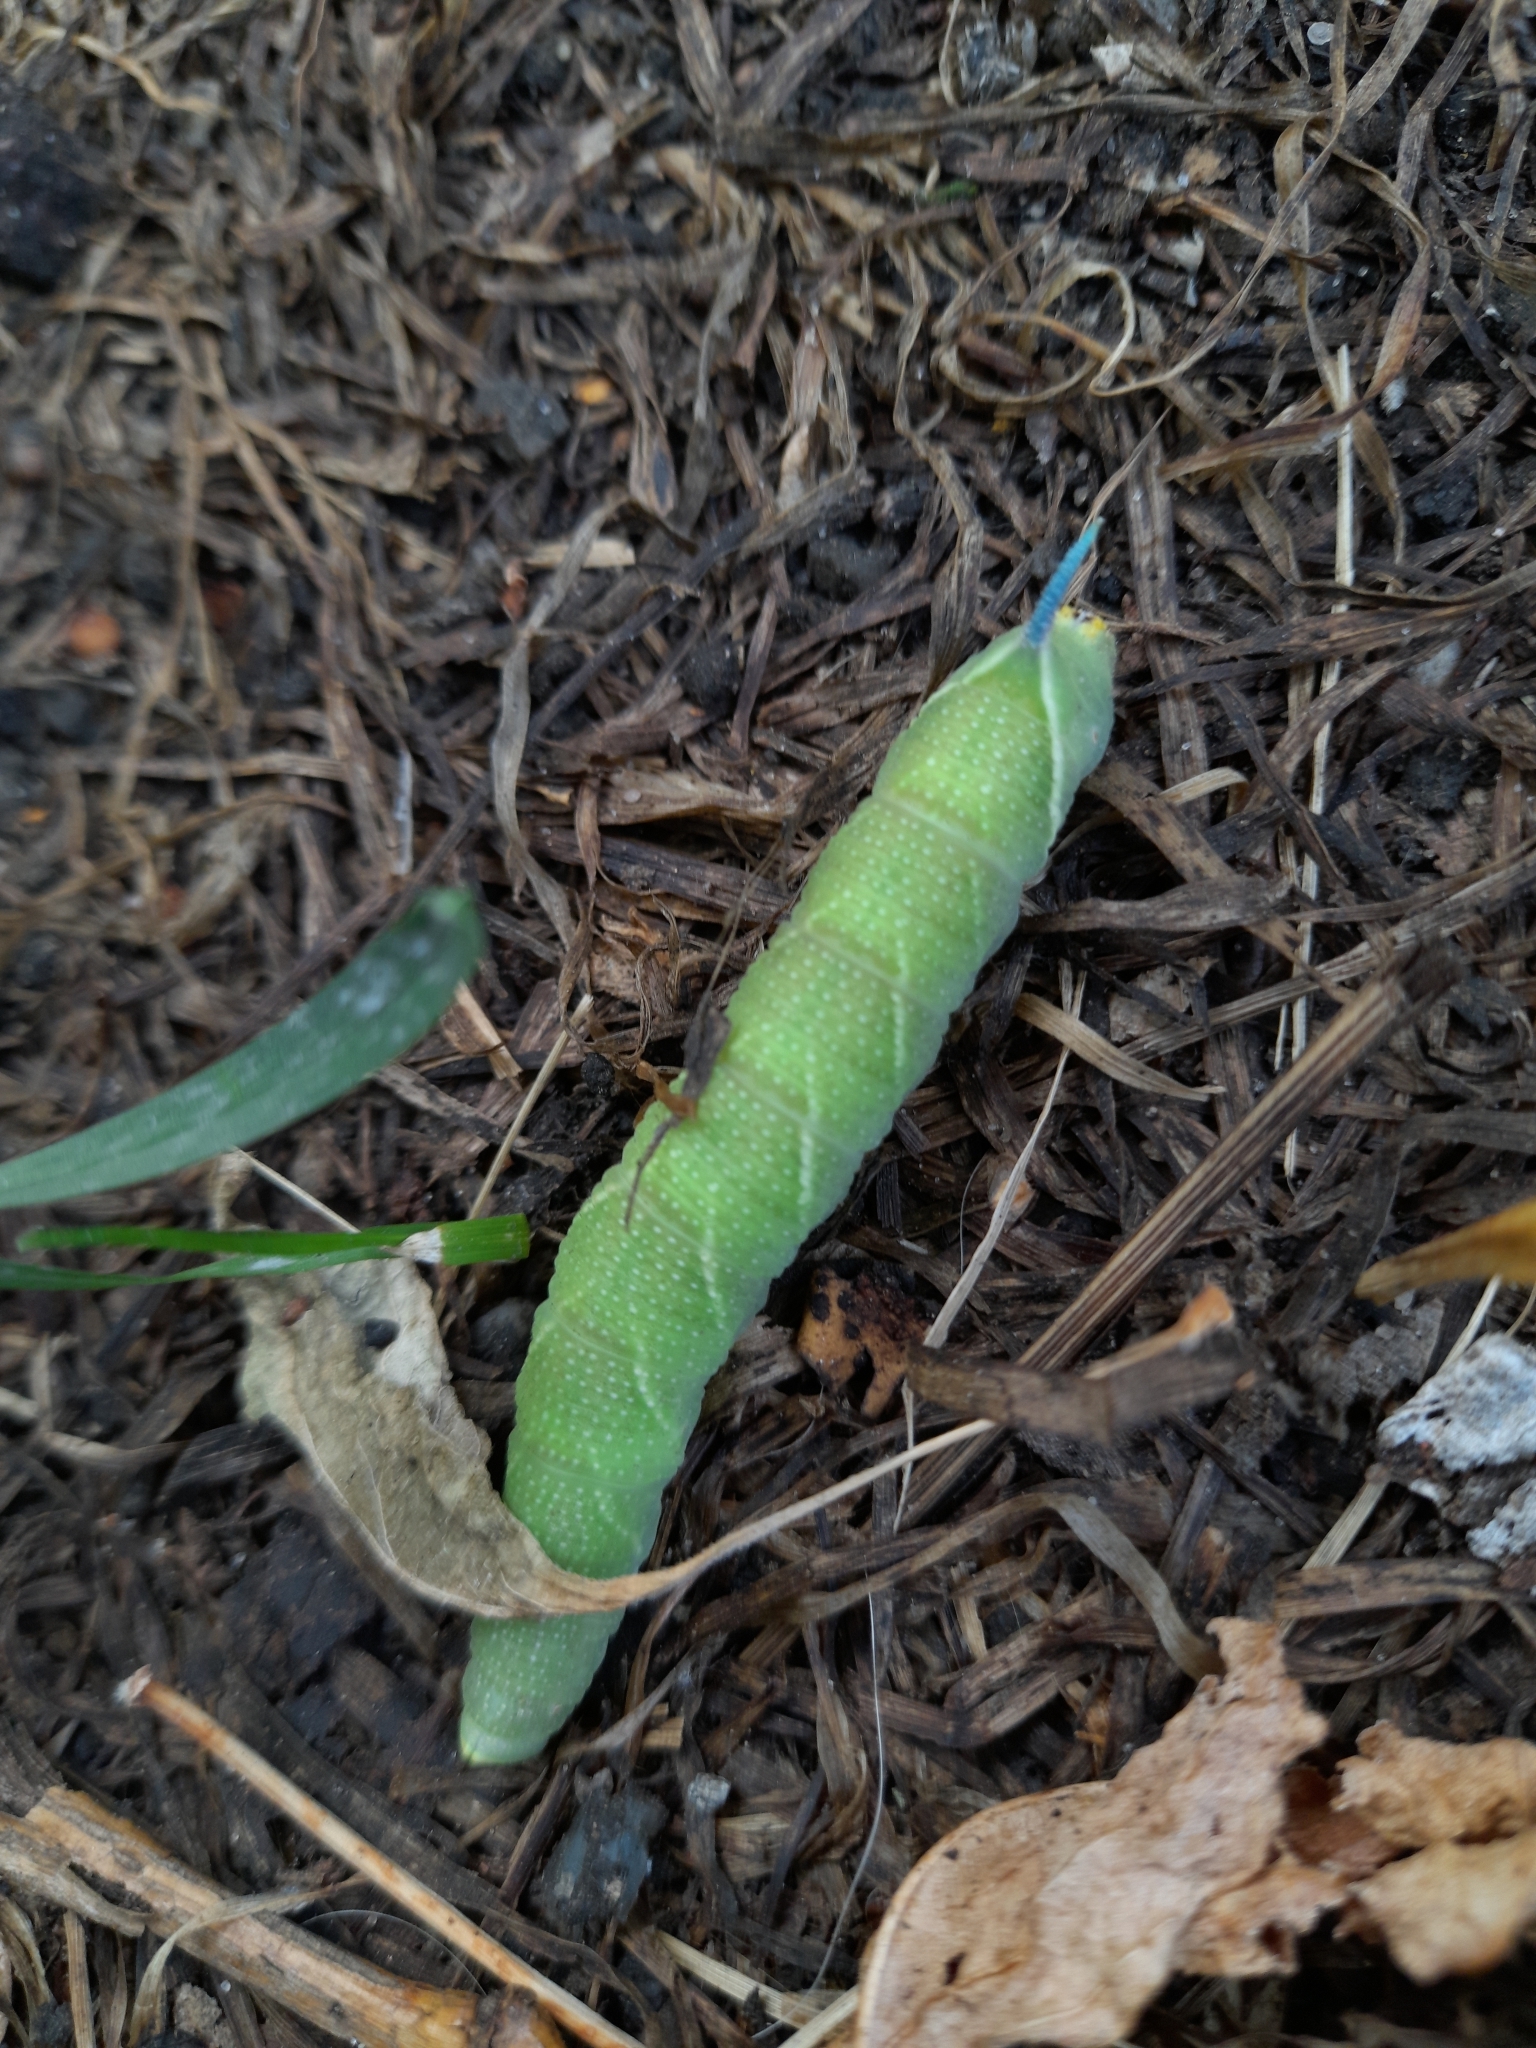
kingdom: Animalia
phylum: Arthropoda
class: Insecta
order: Lepidoptera
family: Sphingidae
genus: Mimas
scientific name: Mimas tiliae
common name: Lime hawk-moth
